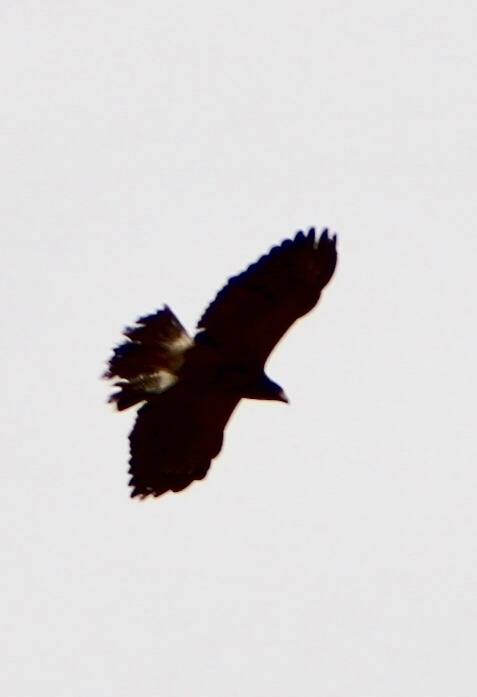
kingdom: Animalia
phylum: Chordata
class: Aves
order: Accipitriformes
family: Accipitridae
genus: Parabuteo
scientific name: Parabuteo unicinctus
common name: Harris's hawk
